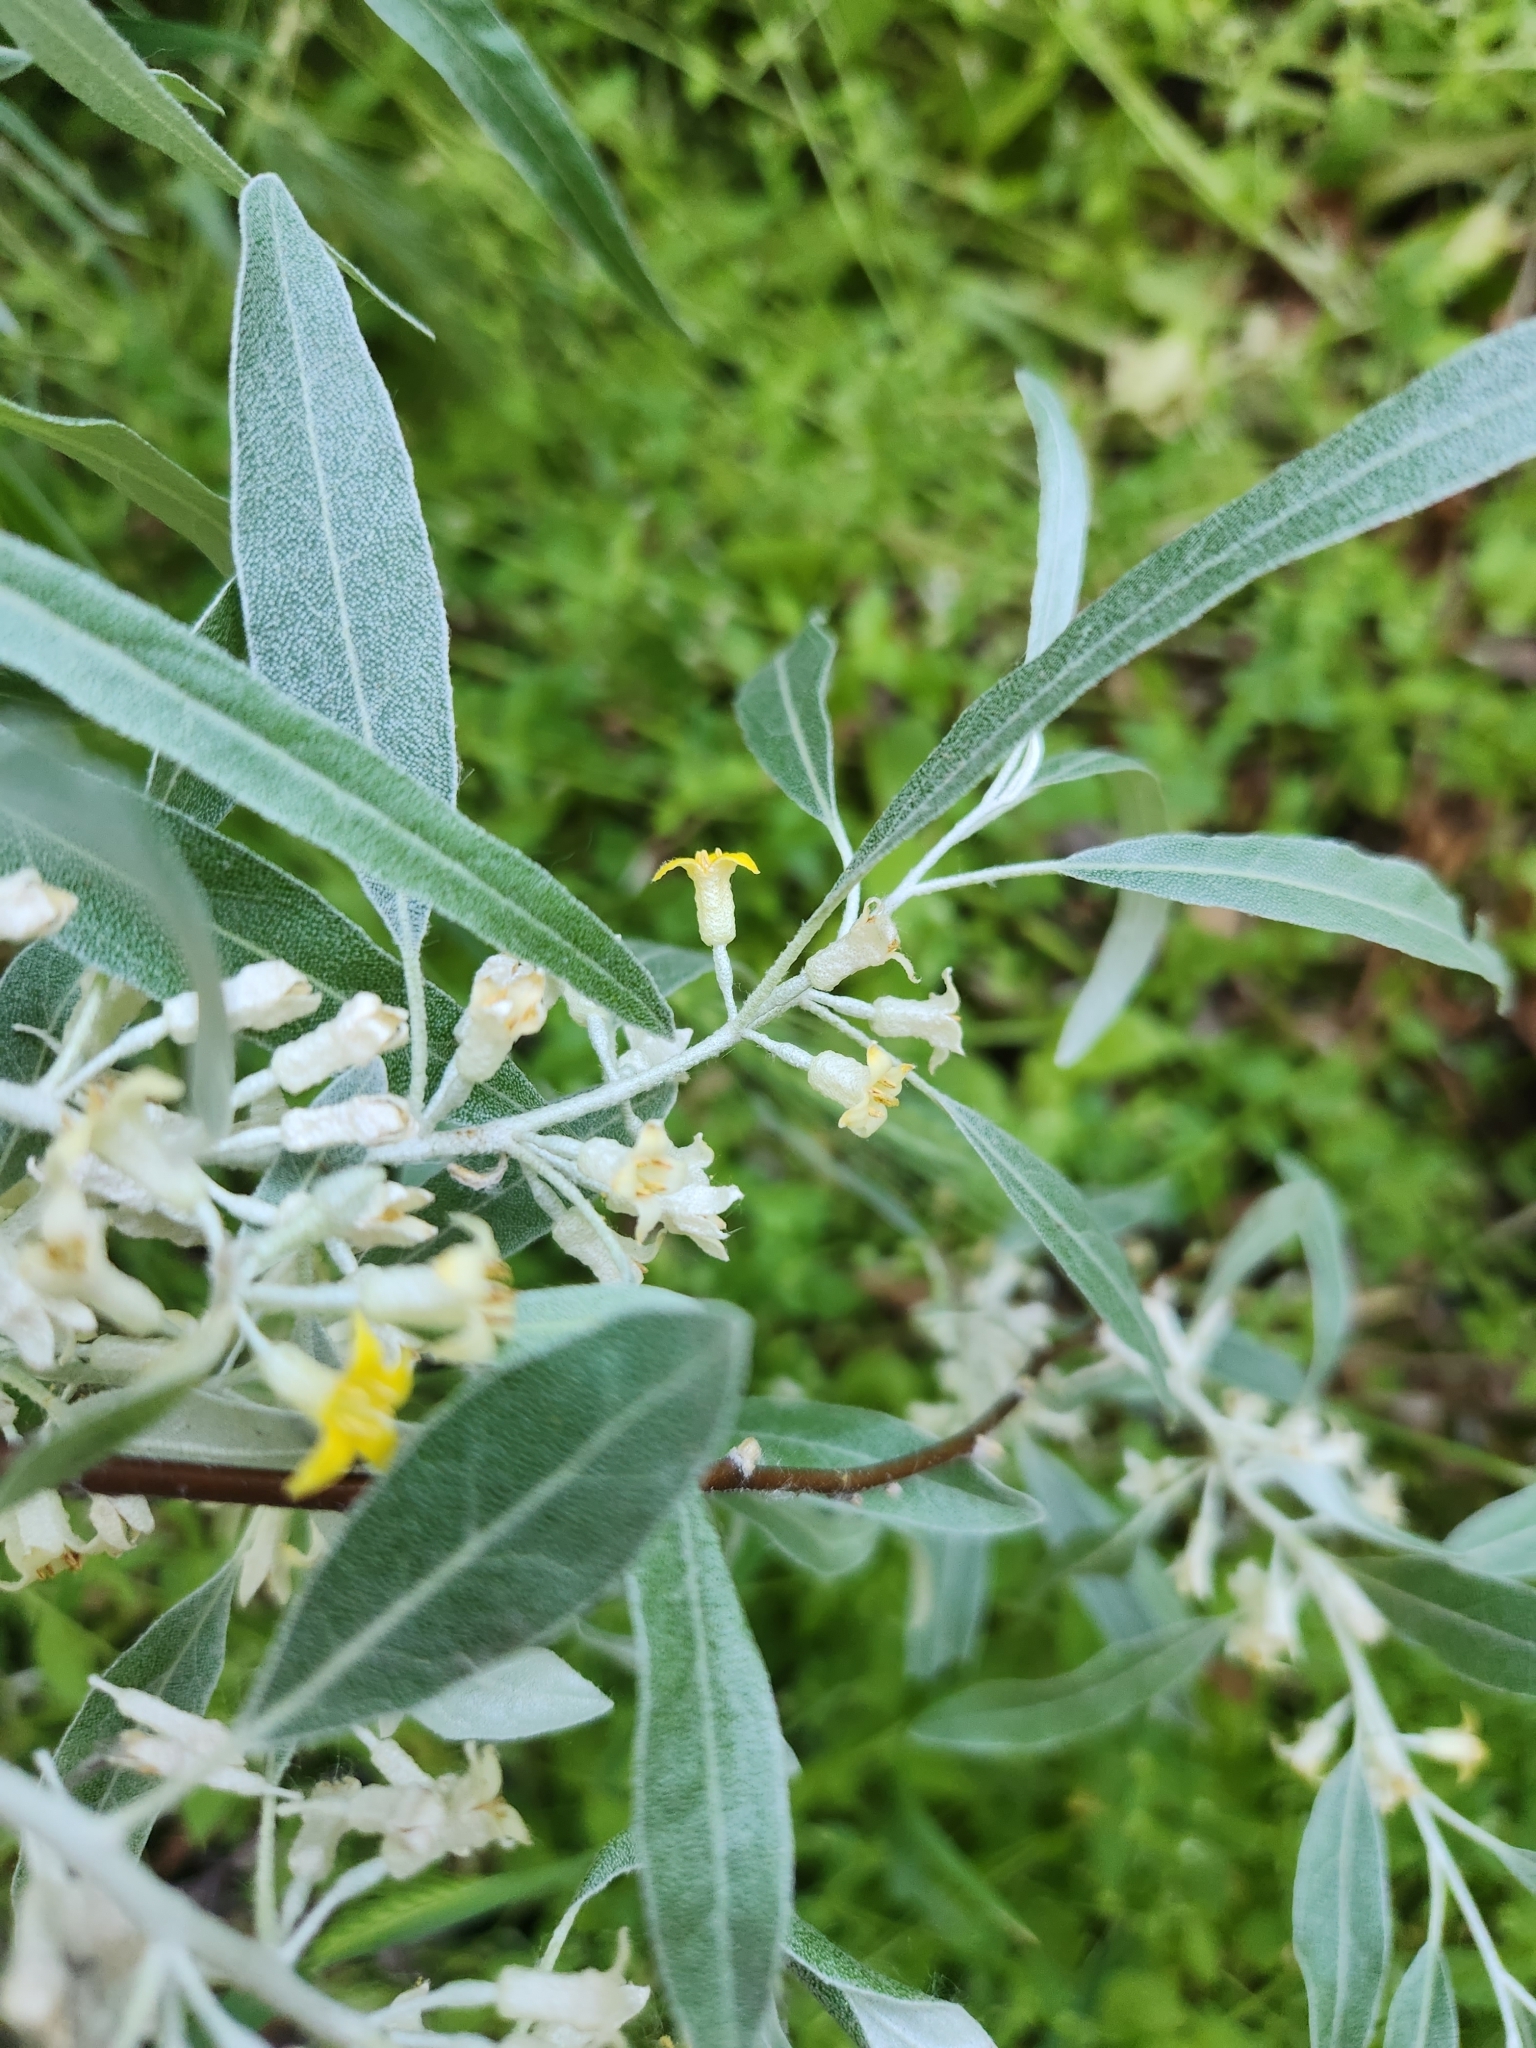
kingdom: Plantae
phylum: Tracheophyta
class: Magnoliopsida
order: Rosales
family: Elaeagnaceae
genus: Elaeagnus
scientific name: Elaeagnus angustifolia
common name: Russian olive
